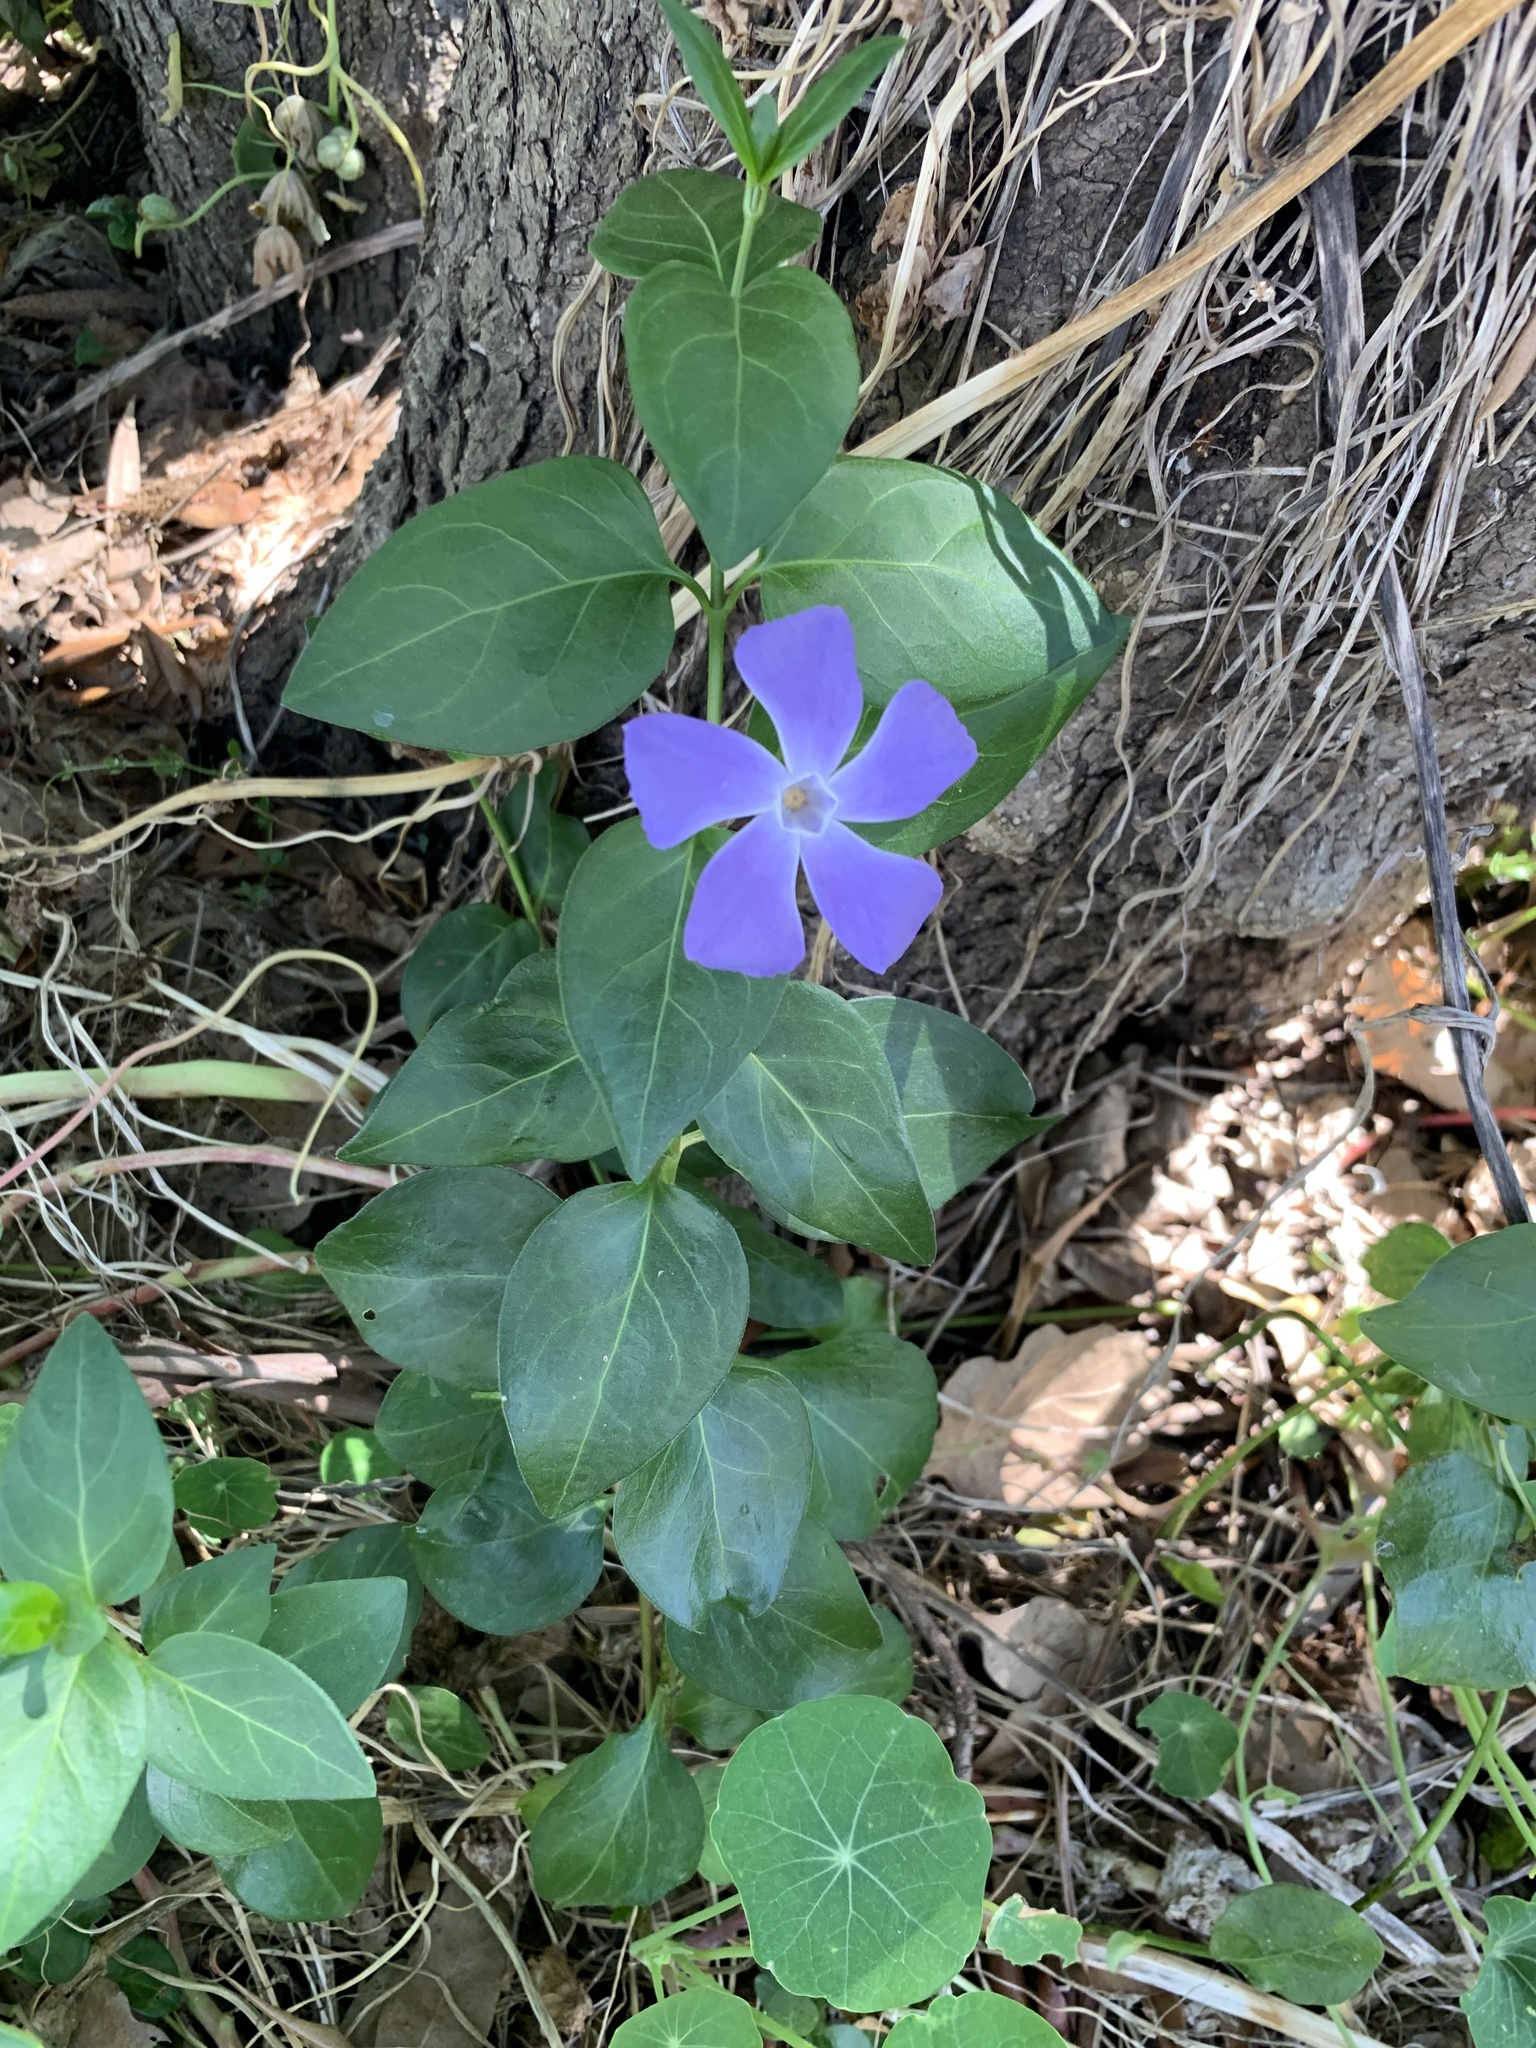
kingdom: Plantae
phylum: Tracheophyta
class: Magnoliopsida
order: Gentianales
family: Apocynaceae
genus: Vinca
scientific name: Vinca major
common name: Greater periwinkle
